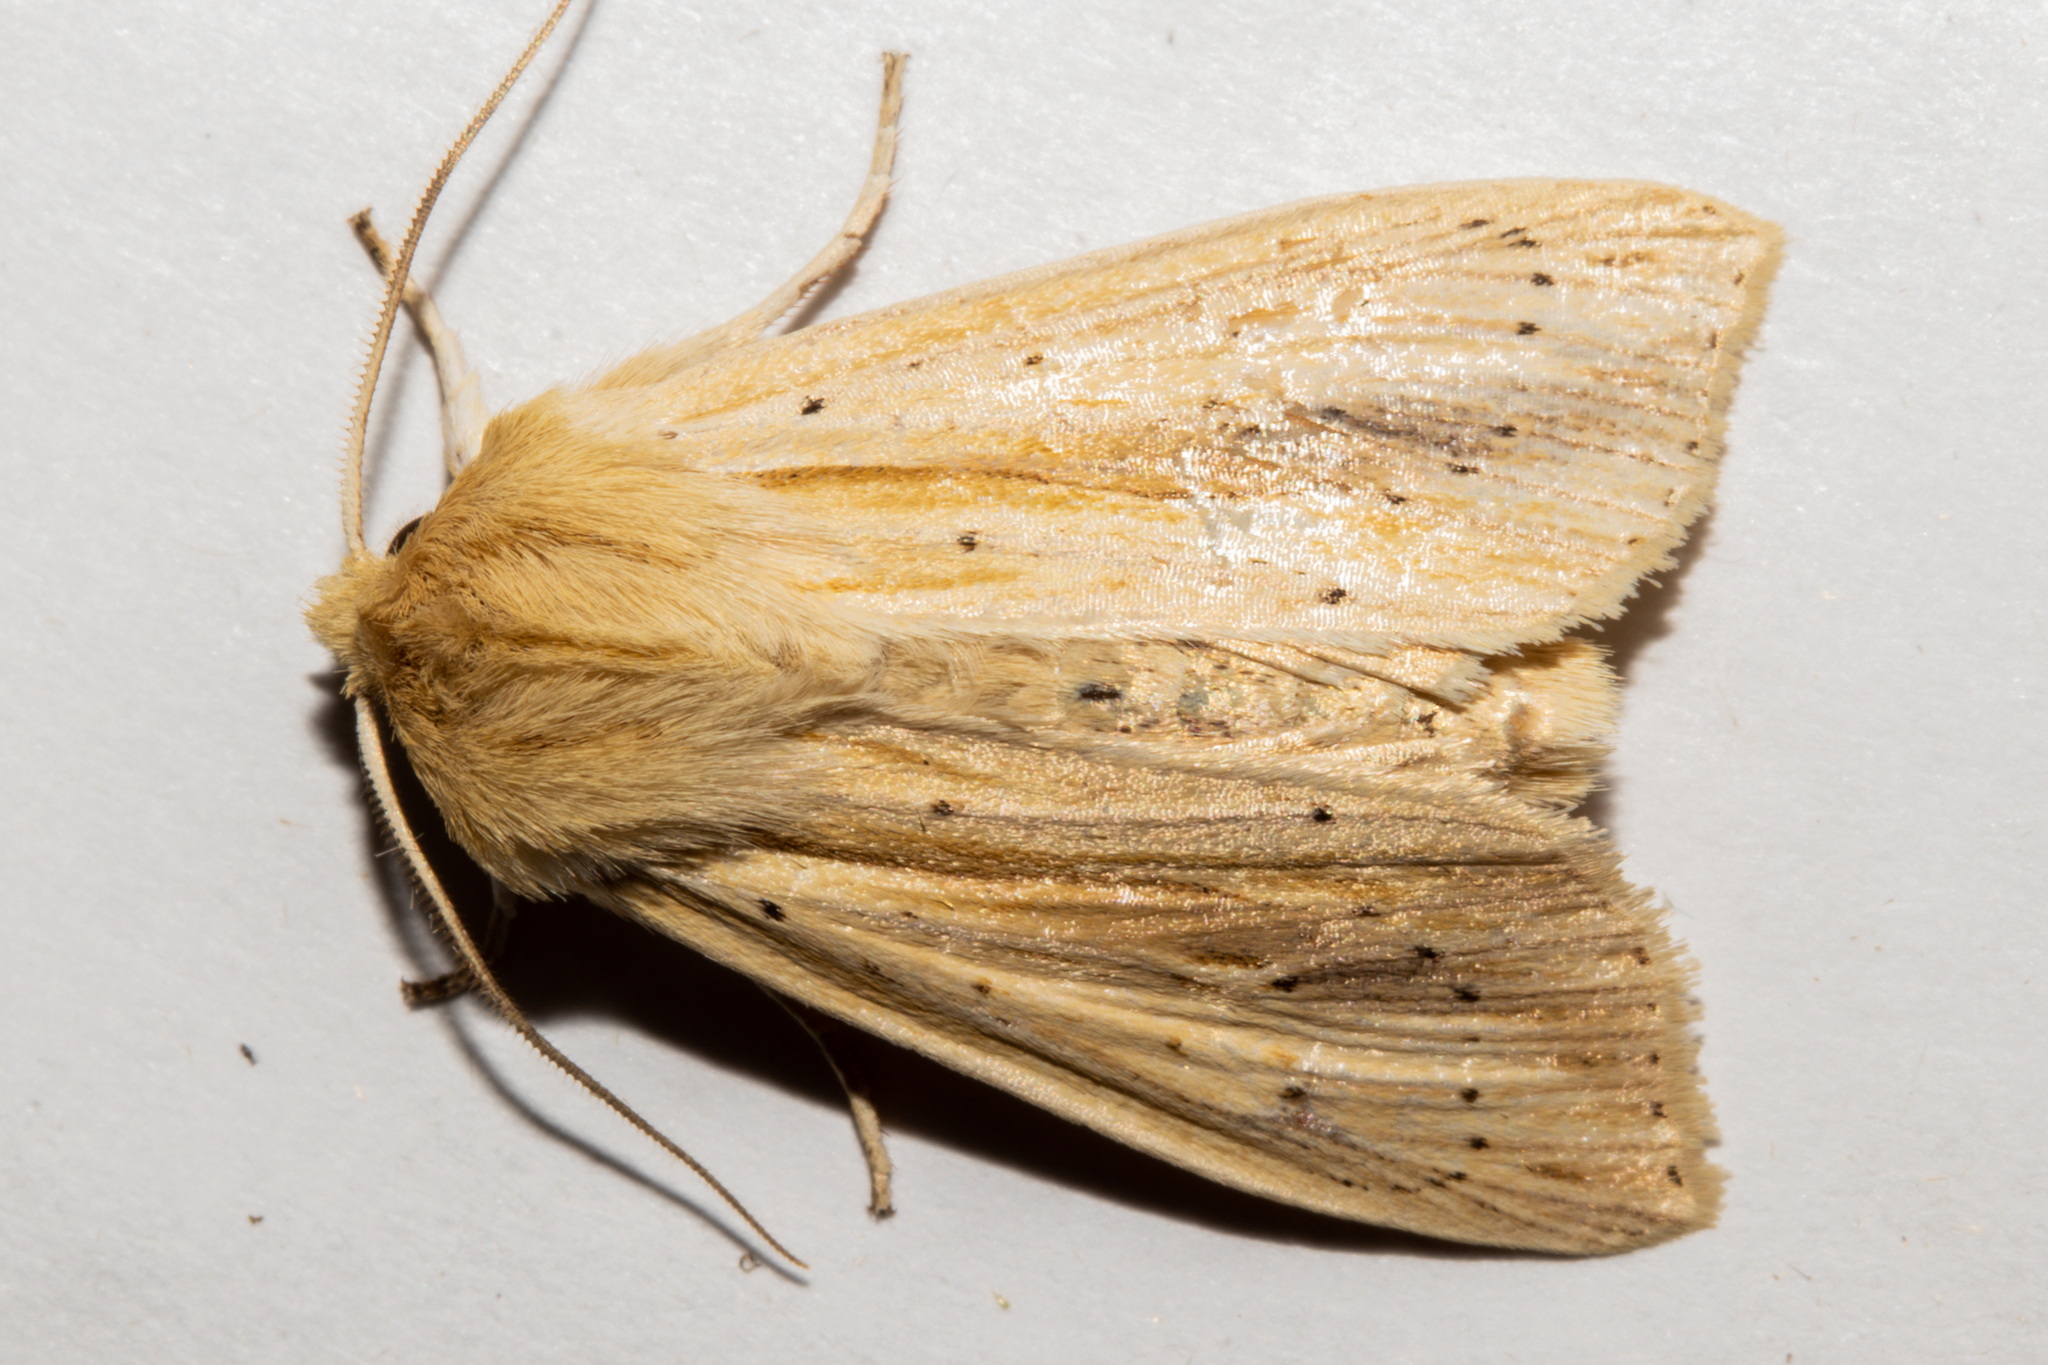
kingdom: Animalia
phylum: Arthropoda
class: Insecta
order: Lepidoptera
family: Noctuidae
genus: Ichneutica
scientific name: Ichneutica semivittata
